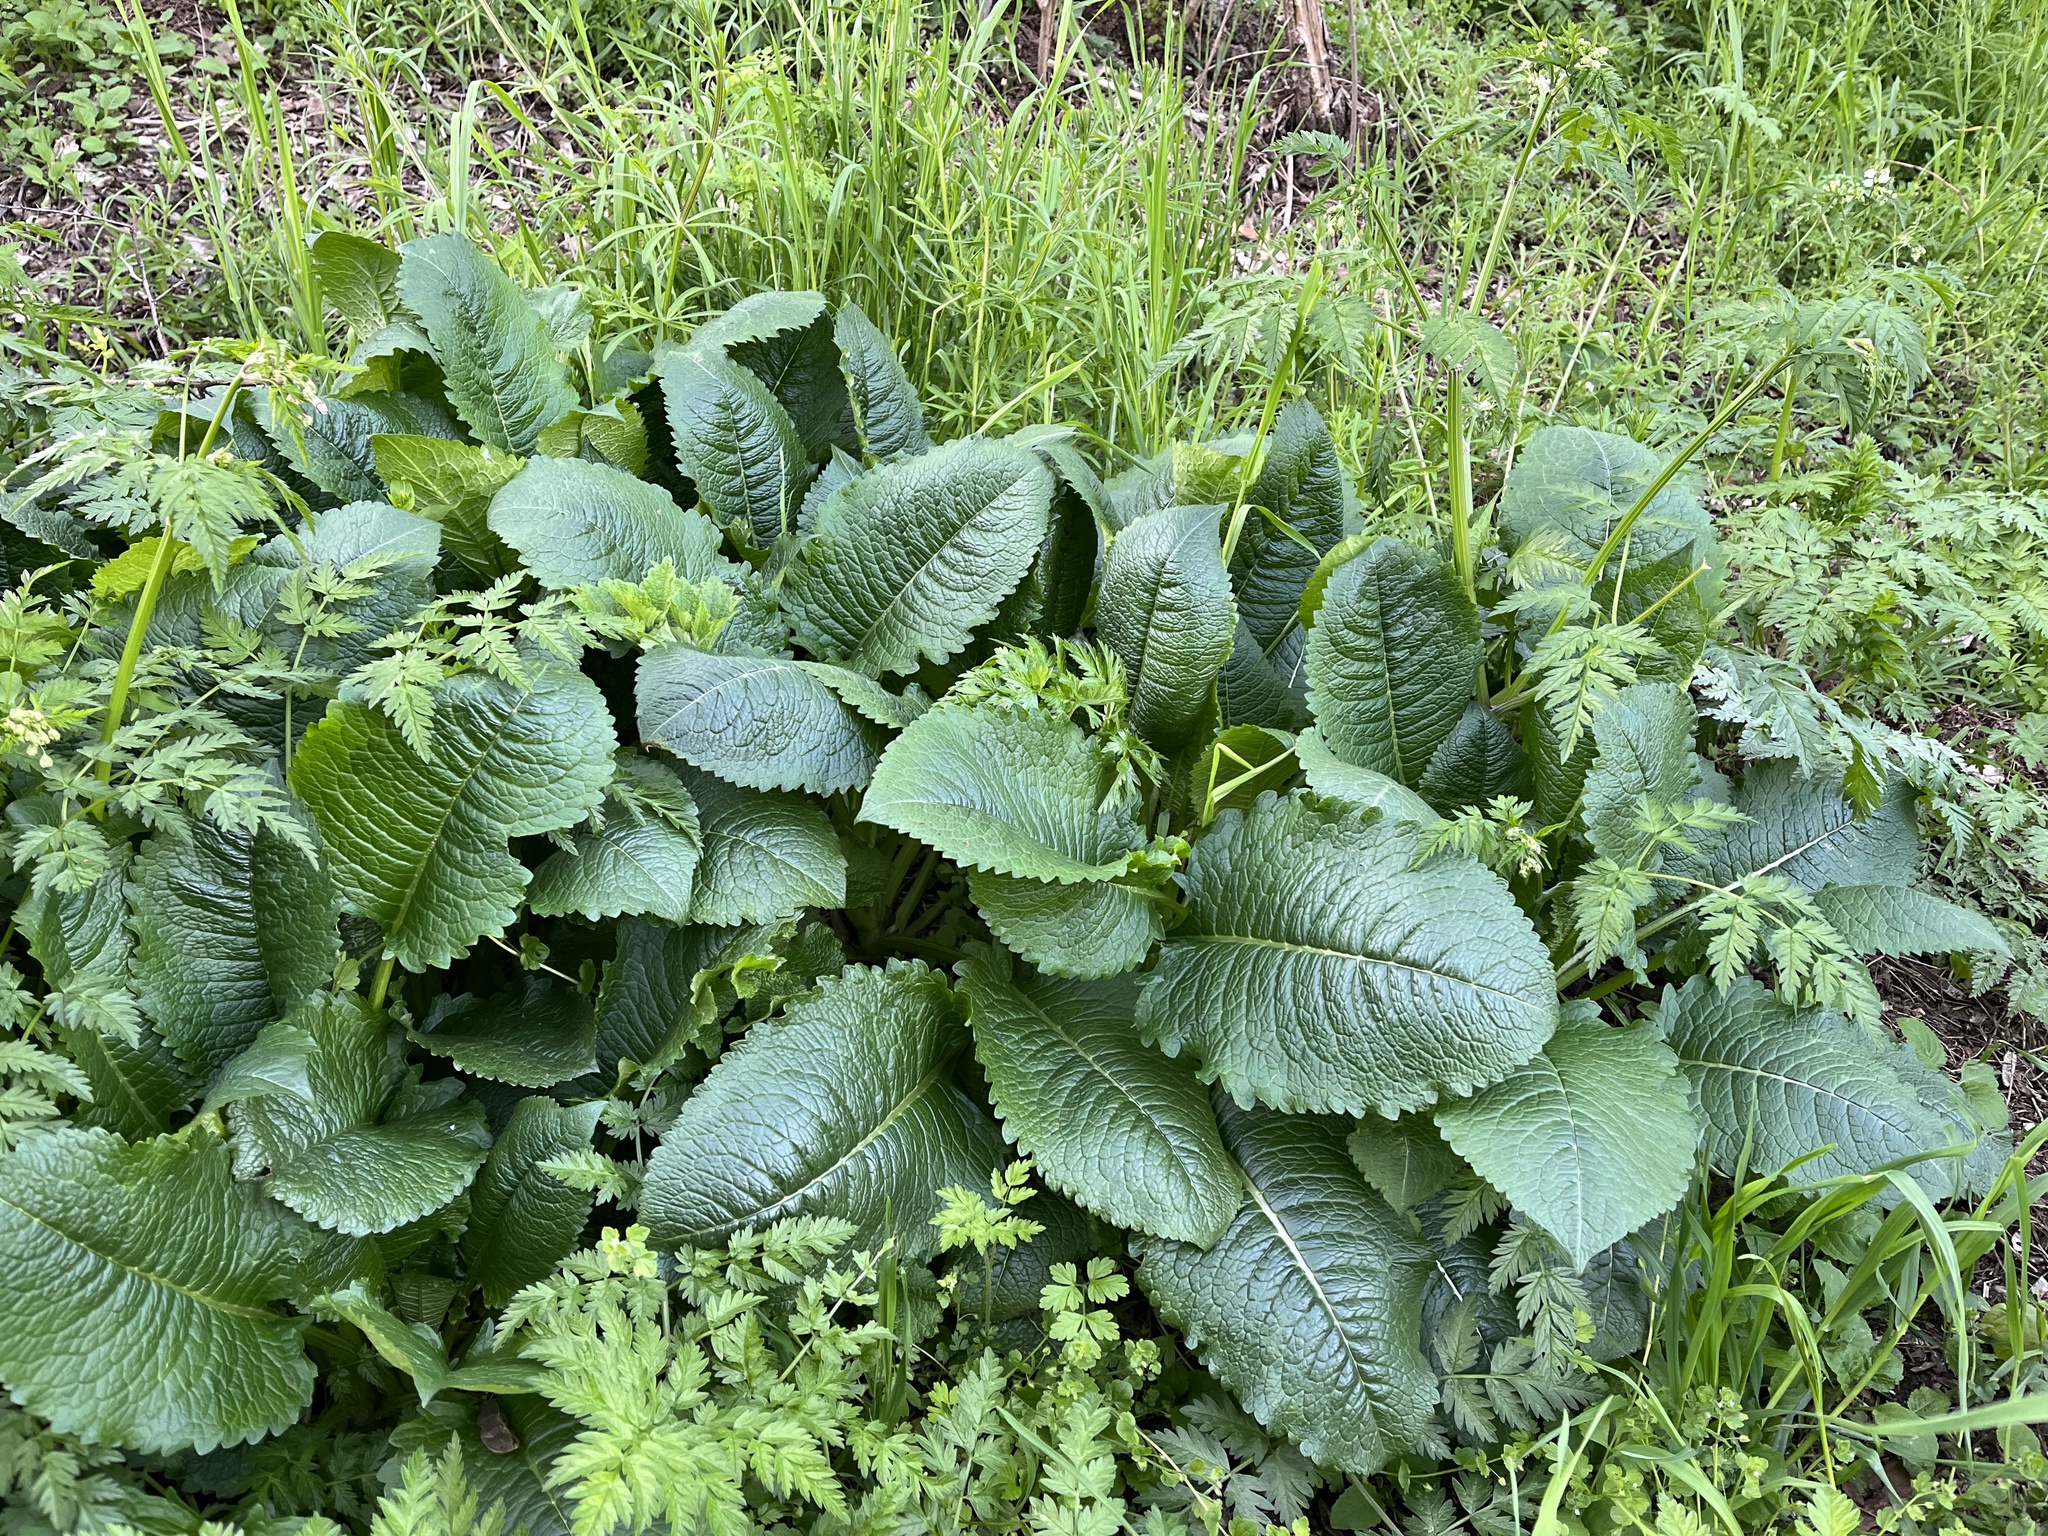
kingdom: Plantae
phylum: Tracheophyta
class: Magnoliopsida
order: Dipsacales
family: Caprifoliaceae
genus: Dipsacus
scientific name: Dipsacus strigosus
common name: Yellow-flowered teasel
